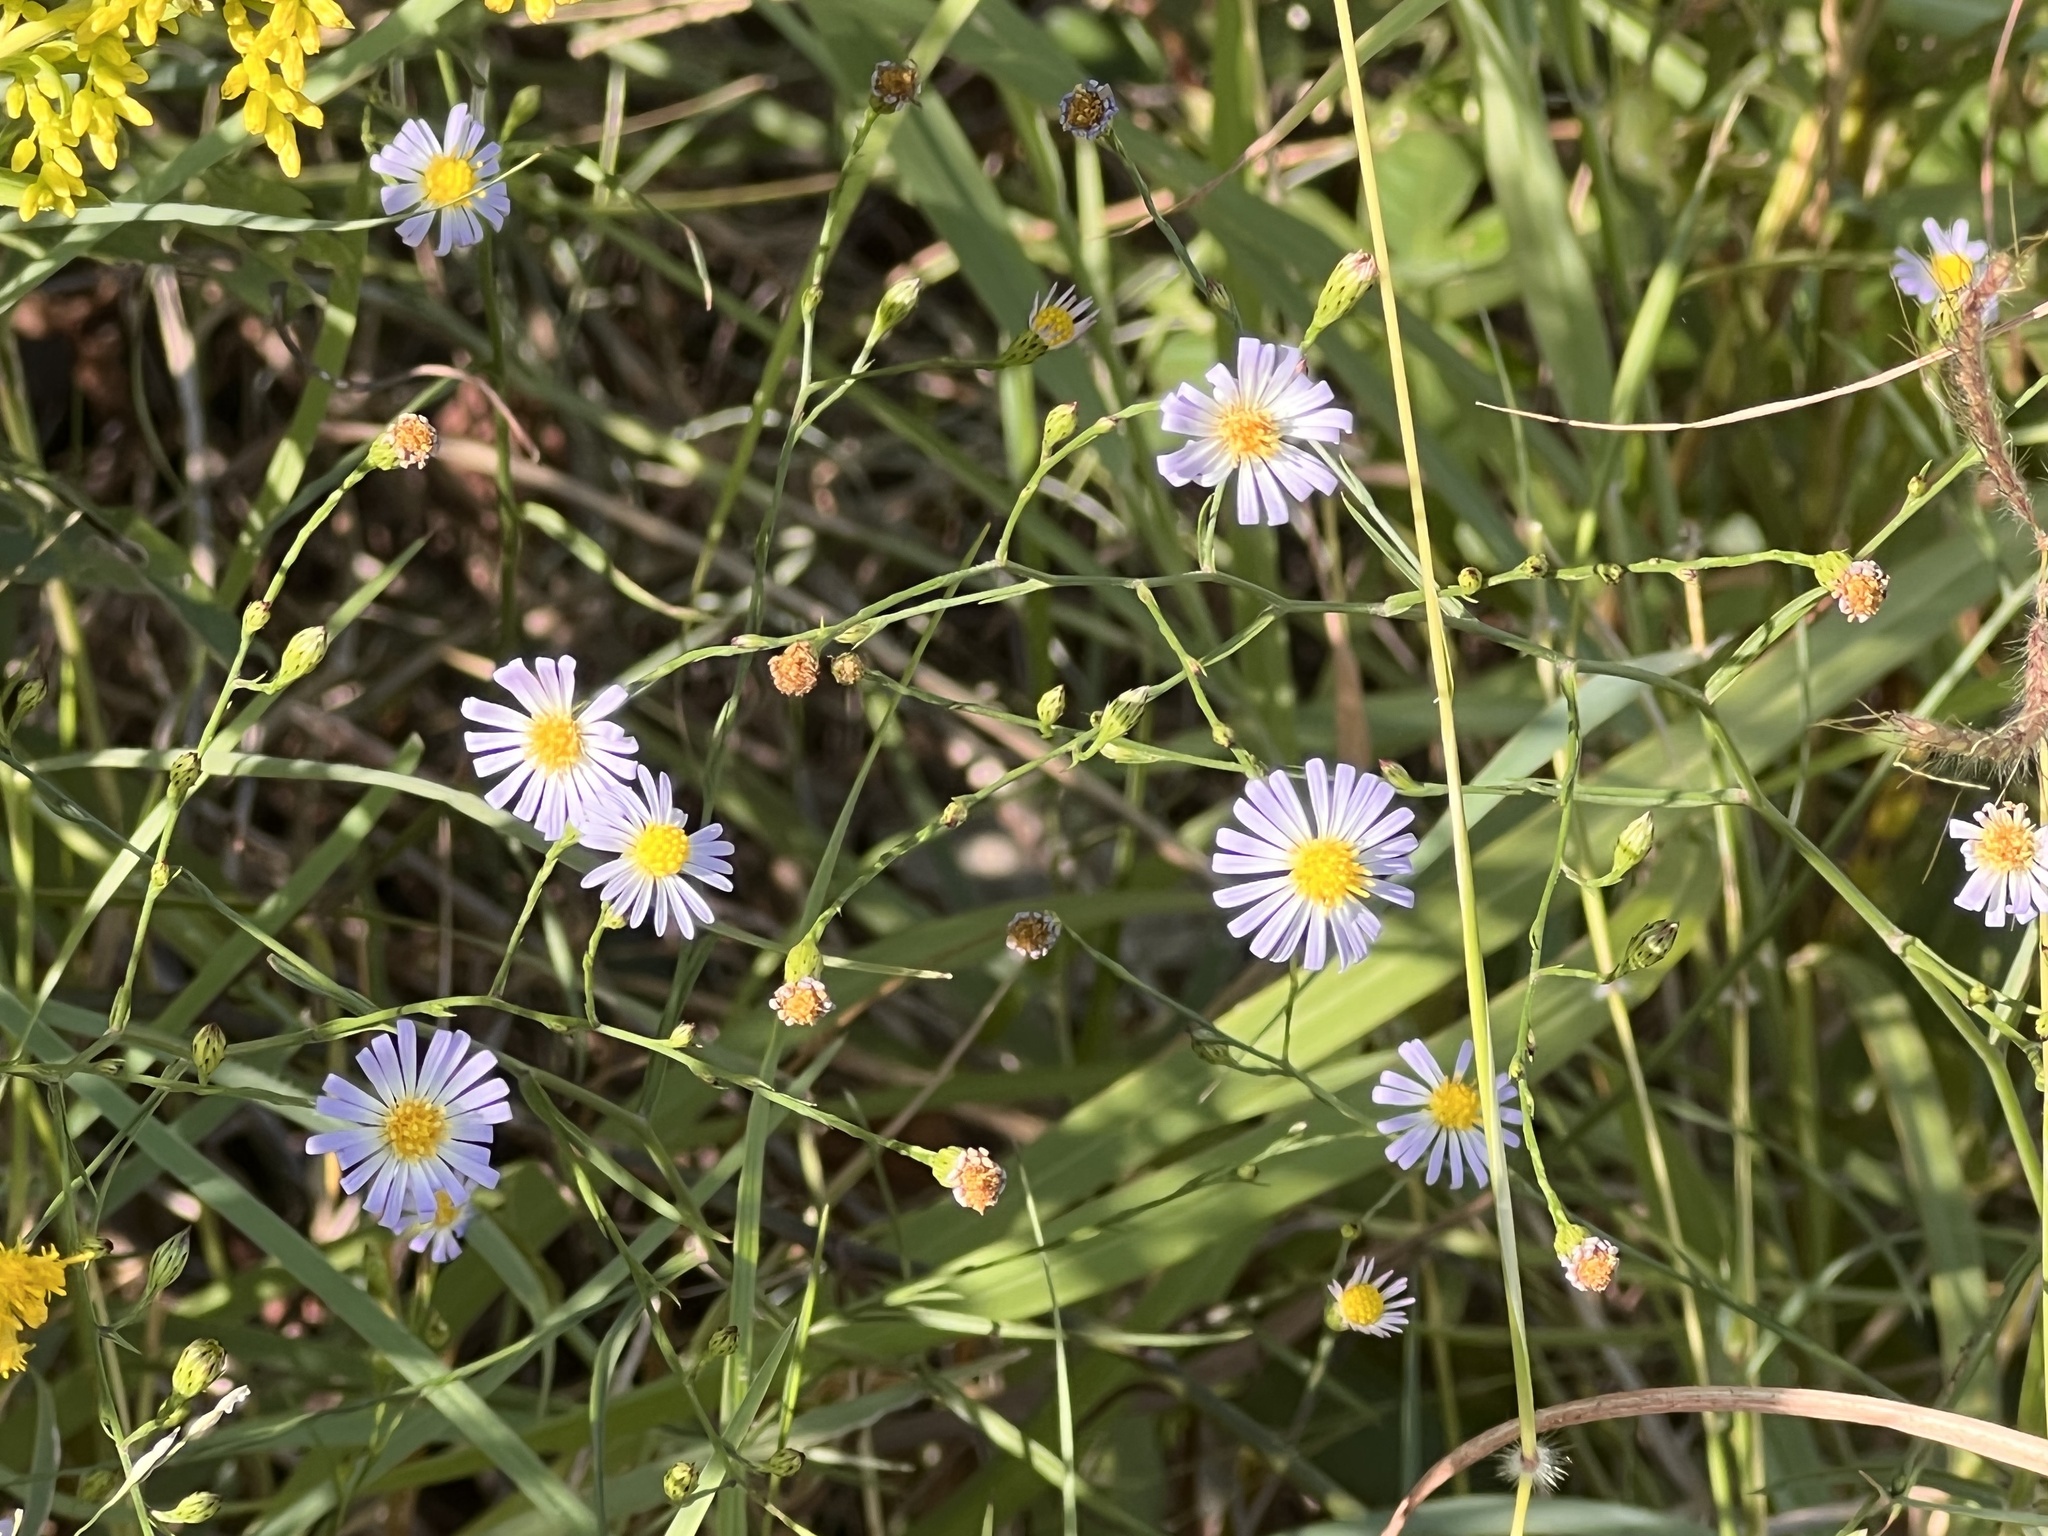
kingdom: Plantae
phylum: Tracheophyta
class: Magnoliopsida
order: Asterales
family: Asteraceae
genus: Symphyotrichum
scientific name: Symphyotrichum divaricatum
